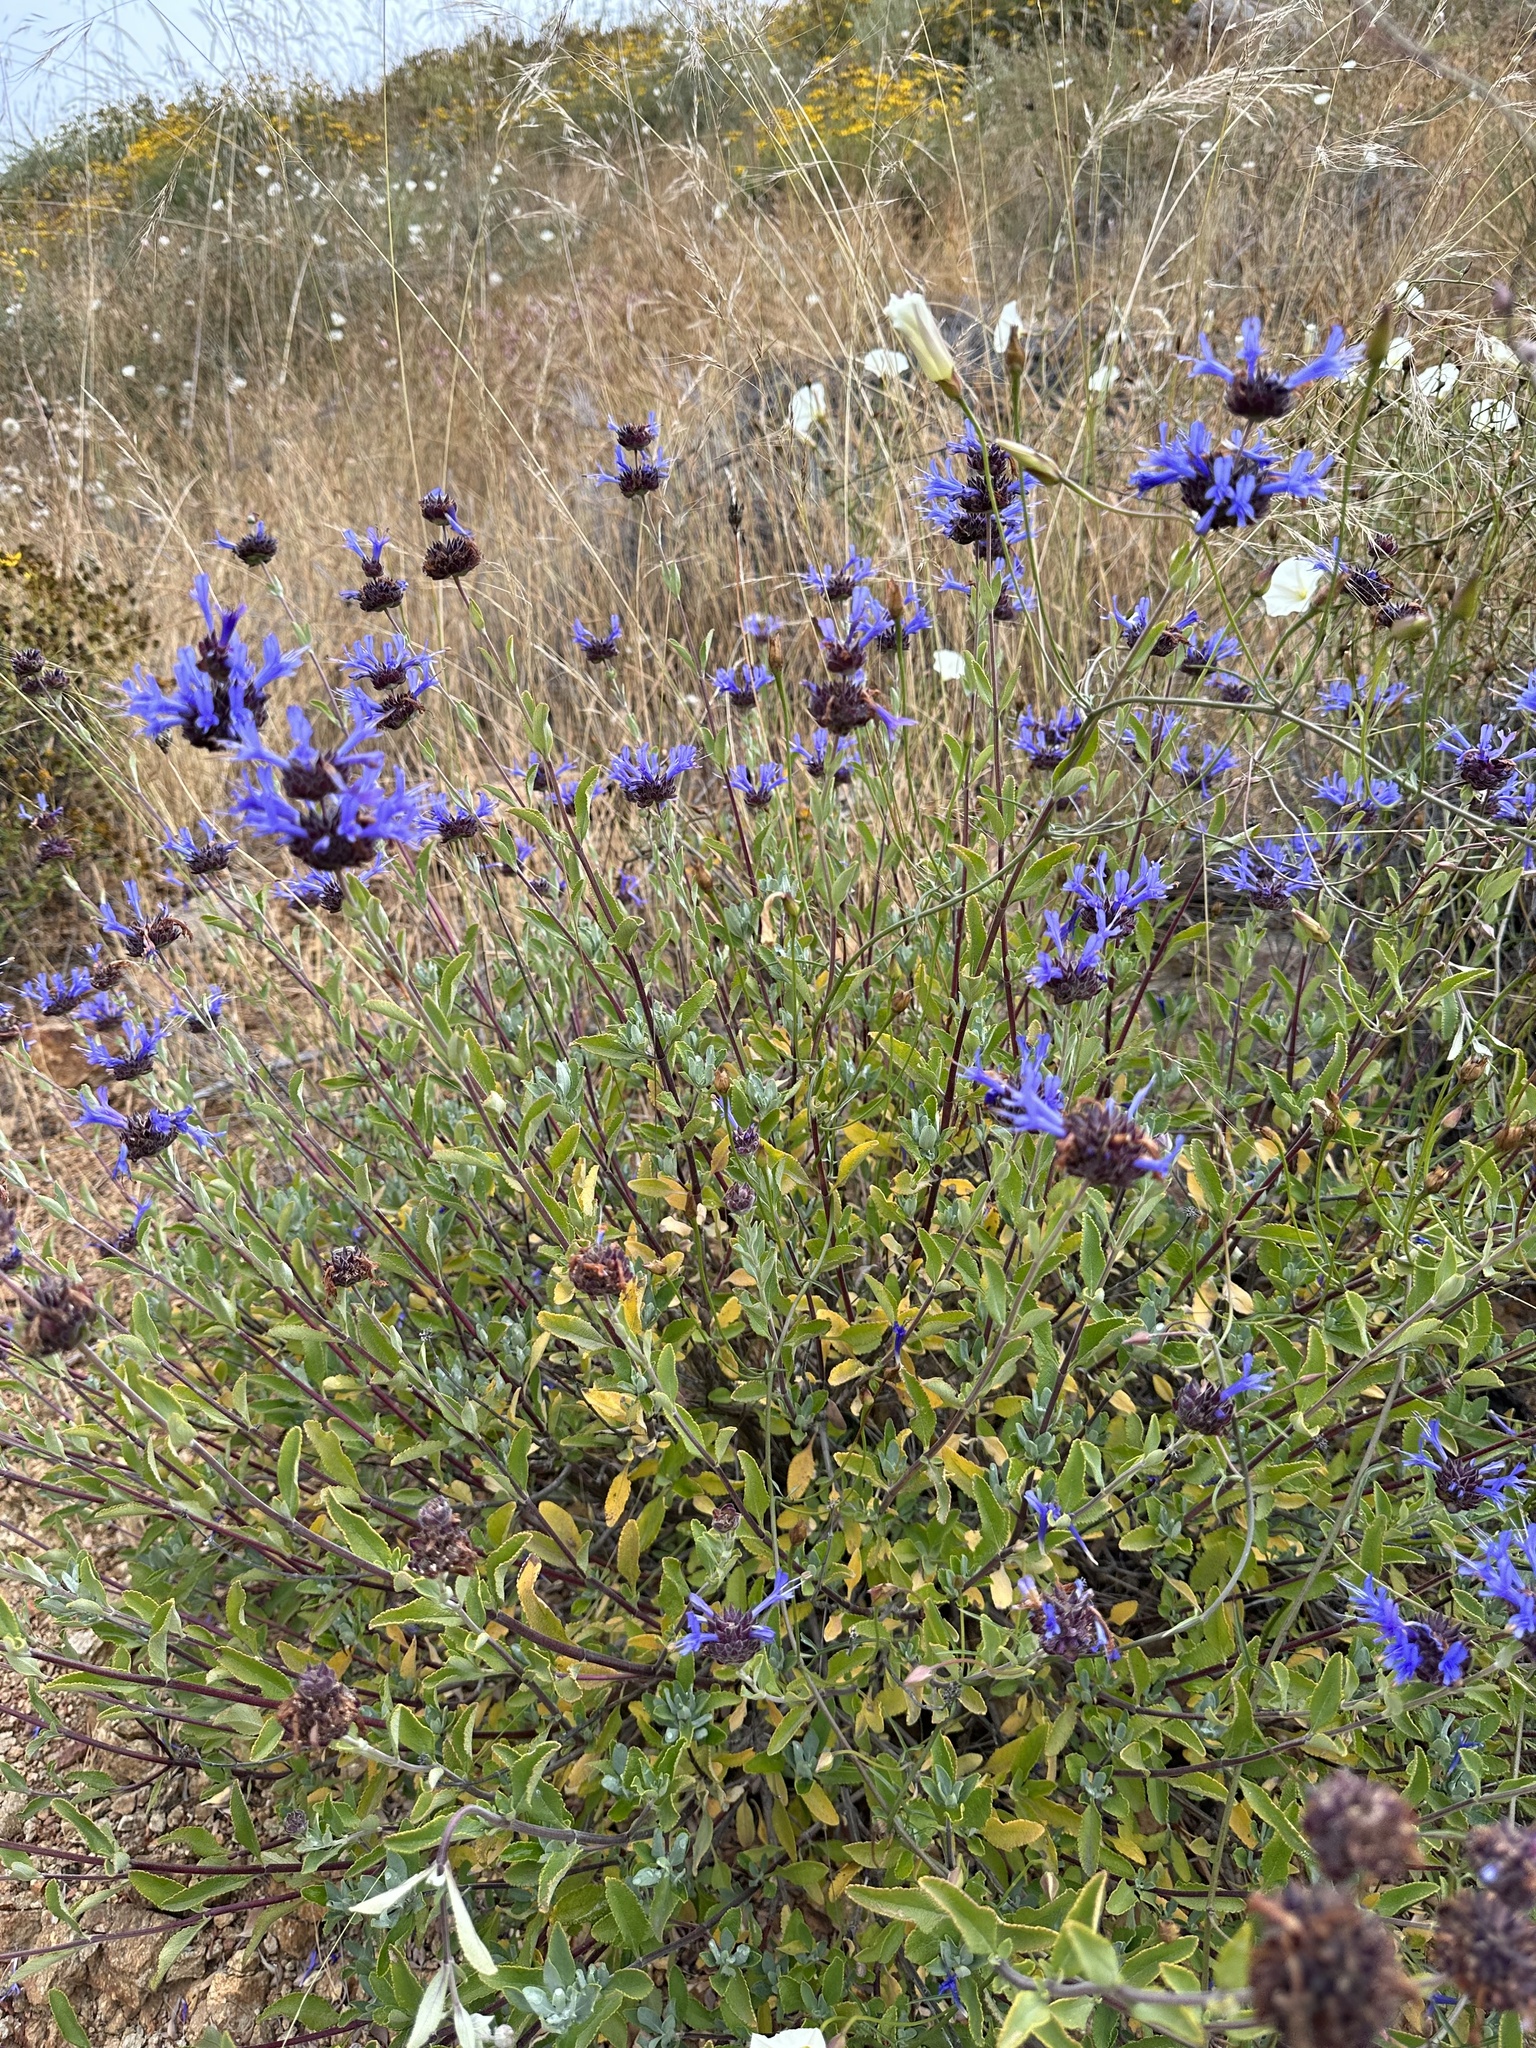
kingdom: Plantae
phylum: Tracheophyta
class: Magnoliopsida
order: Lamiales
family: Lamiaceae
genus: Salvia
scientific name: Salvia clevelandii
